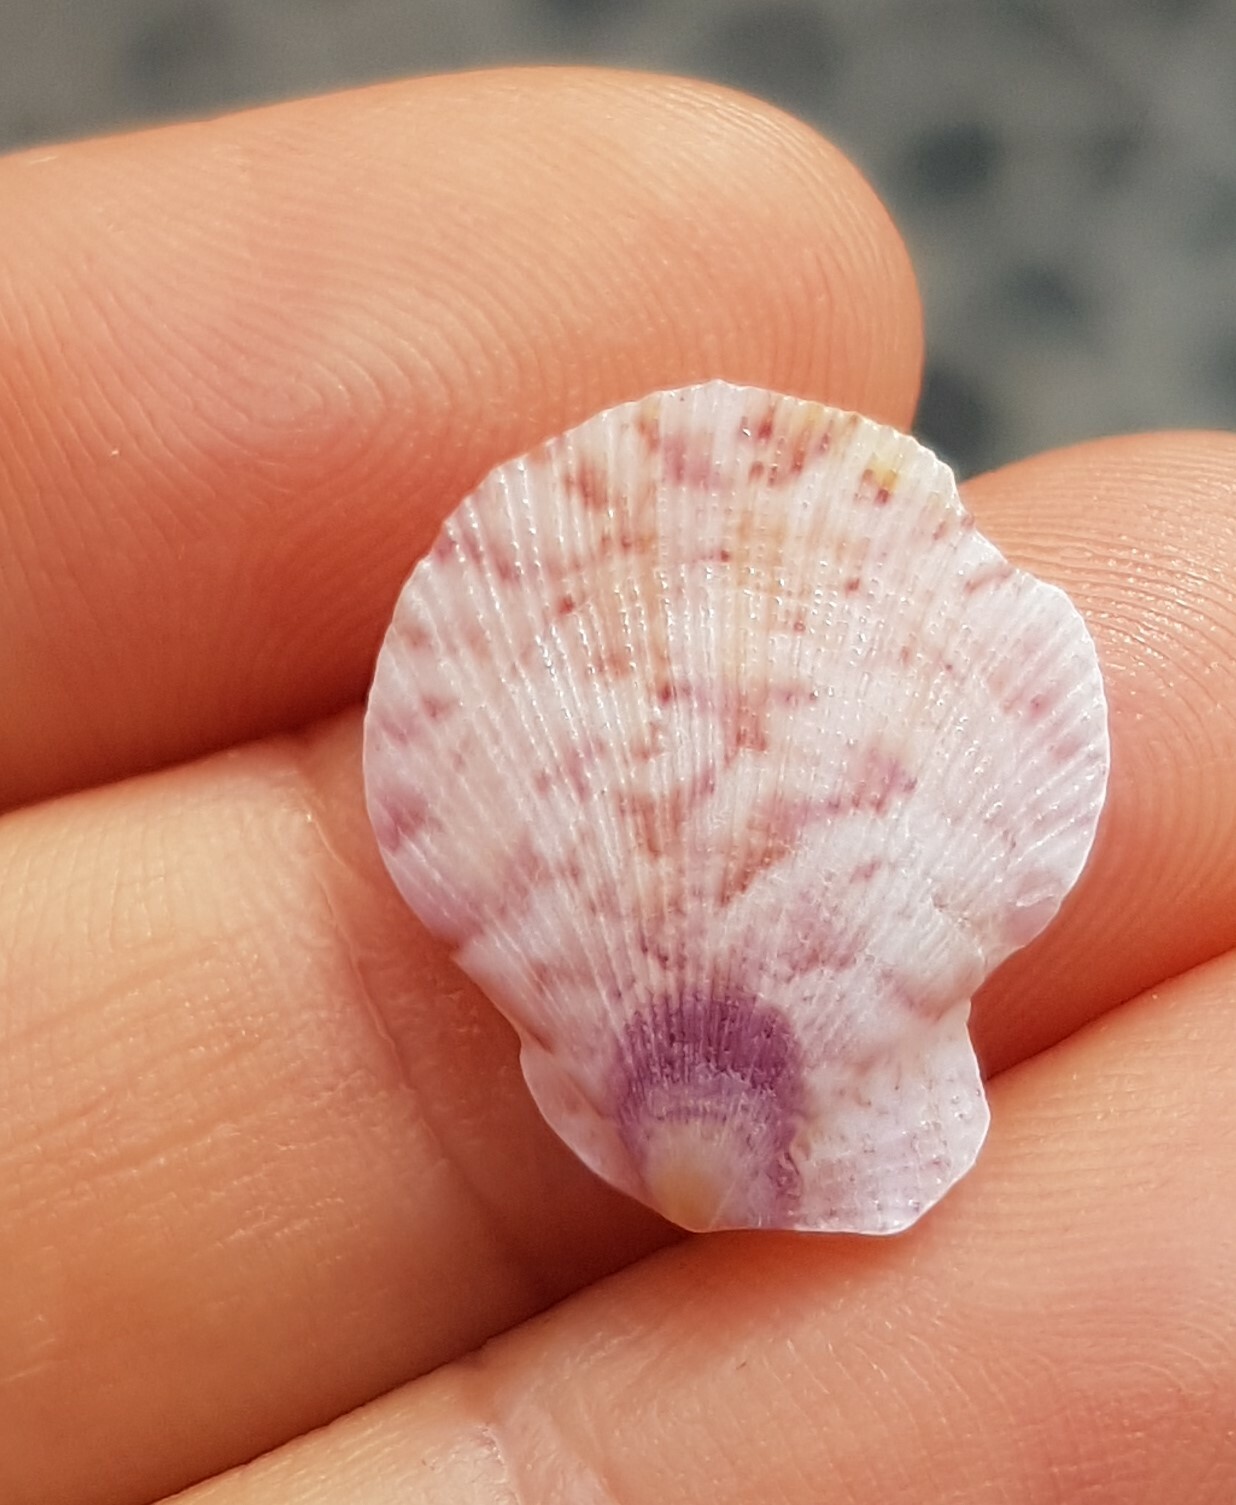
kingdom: Animalia
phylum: Mollusca
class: Bivalvia
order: Pectinida
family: Pectinidae
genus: Talochlamys
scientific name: Talochlamys pusio
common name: Hunchback scallop
